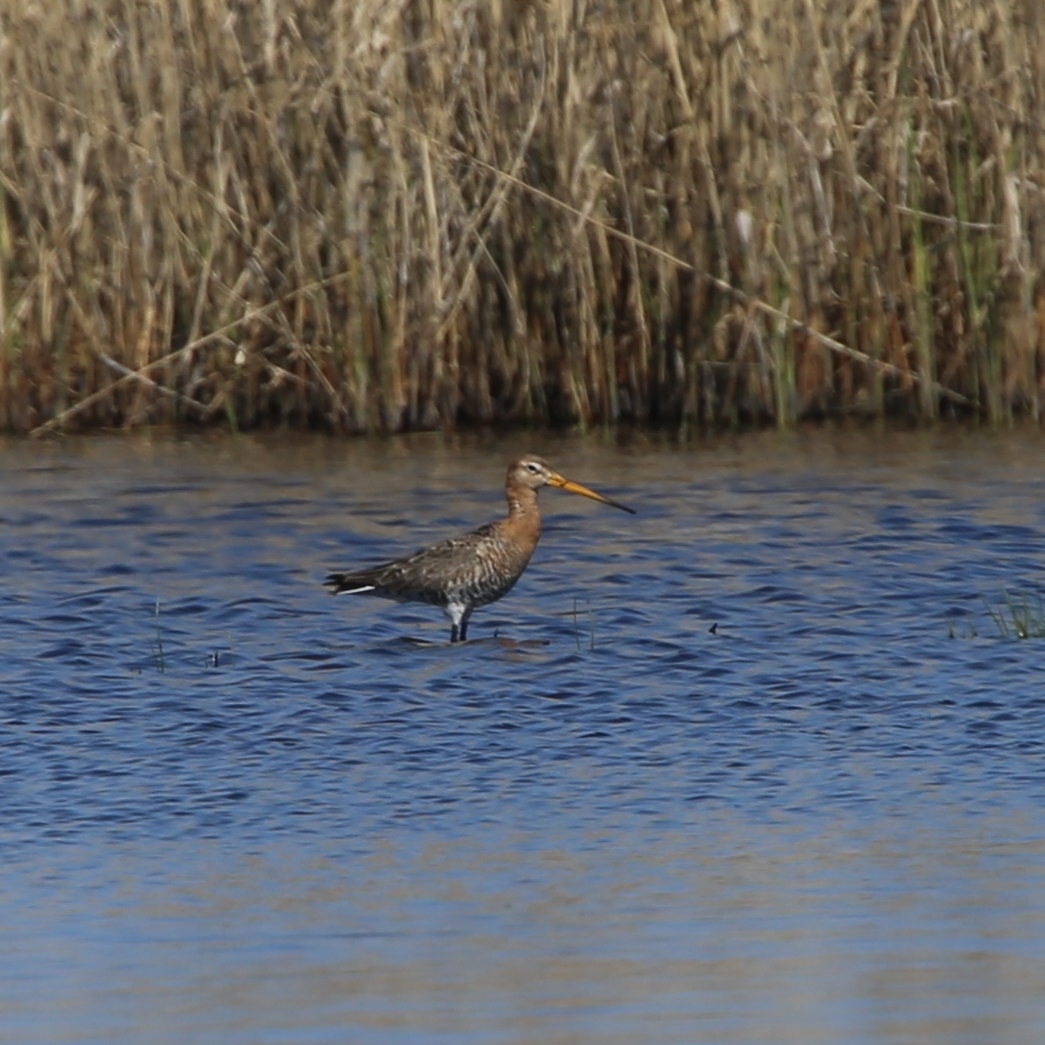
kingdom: Animalia
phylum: Chordata
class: Aves
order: Charadriiformes
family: Scolopacidae
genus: Limosa
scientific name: Limosa limosa
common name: Black-tailed godwit
